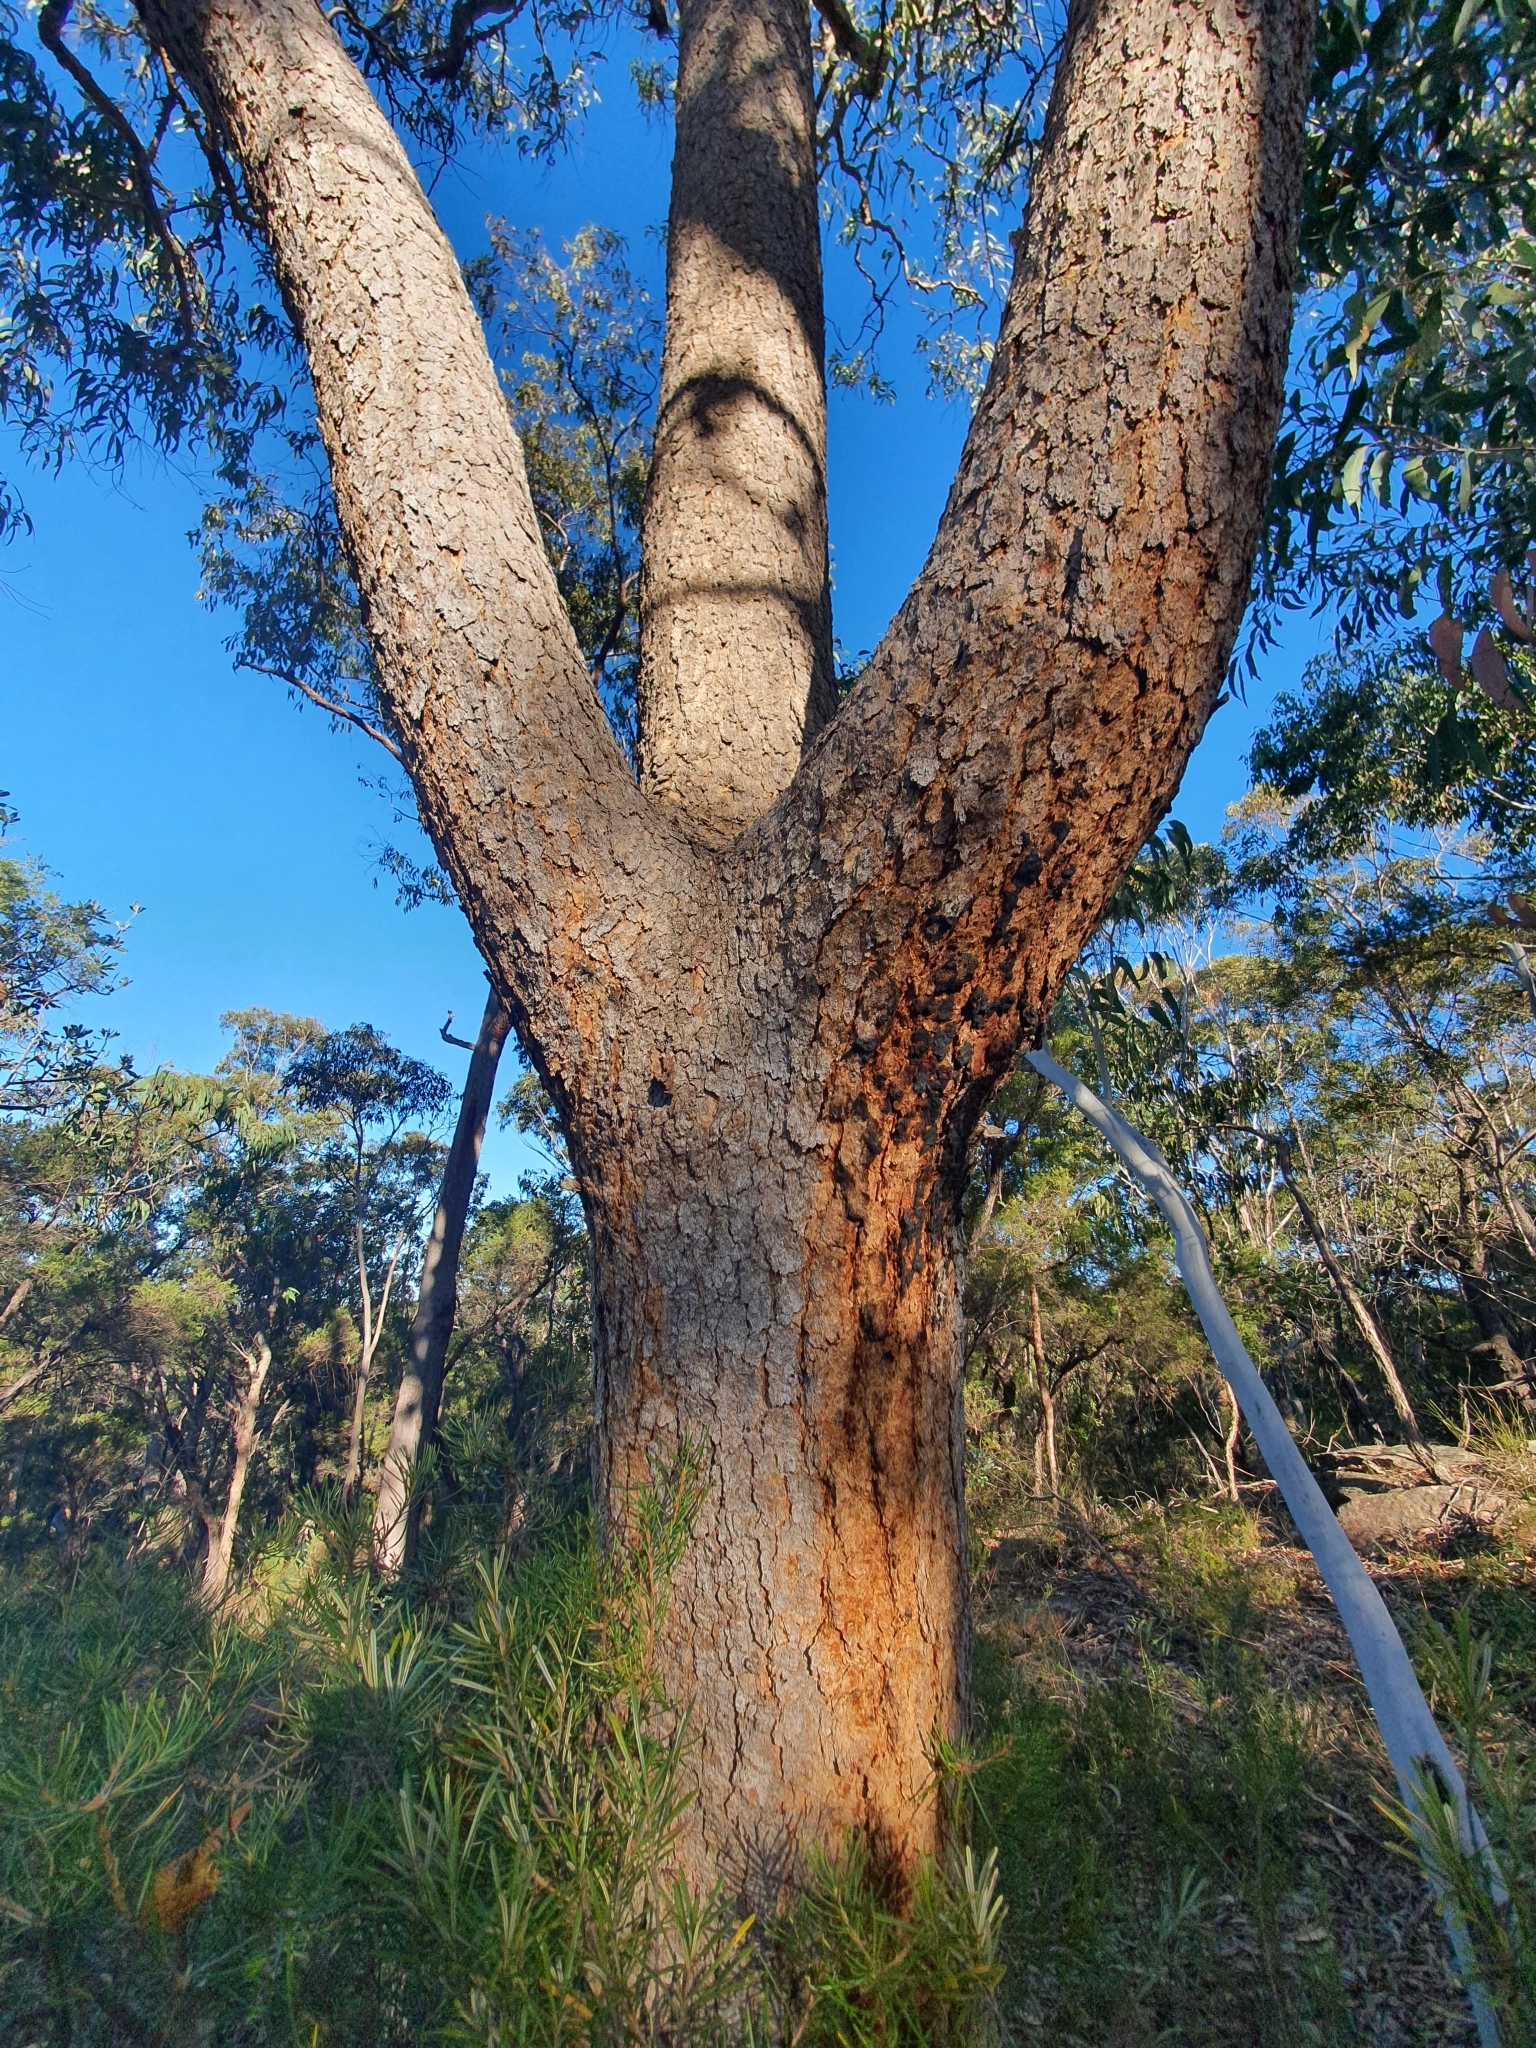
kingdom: Plantae
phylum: Tracheophyta
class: Magnoliopsida
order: Myrtales
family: Myrtaceae
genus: Corymbia
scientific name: Corymbia eximia
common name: Yellow bloodwood
